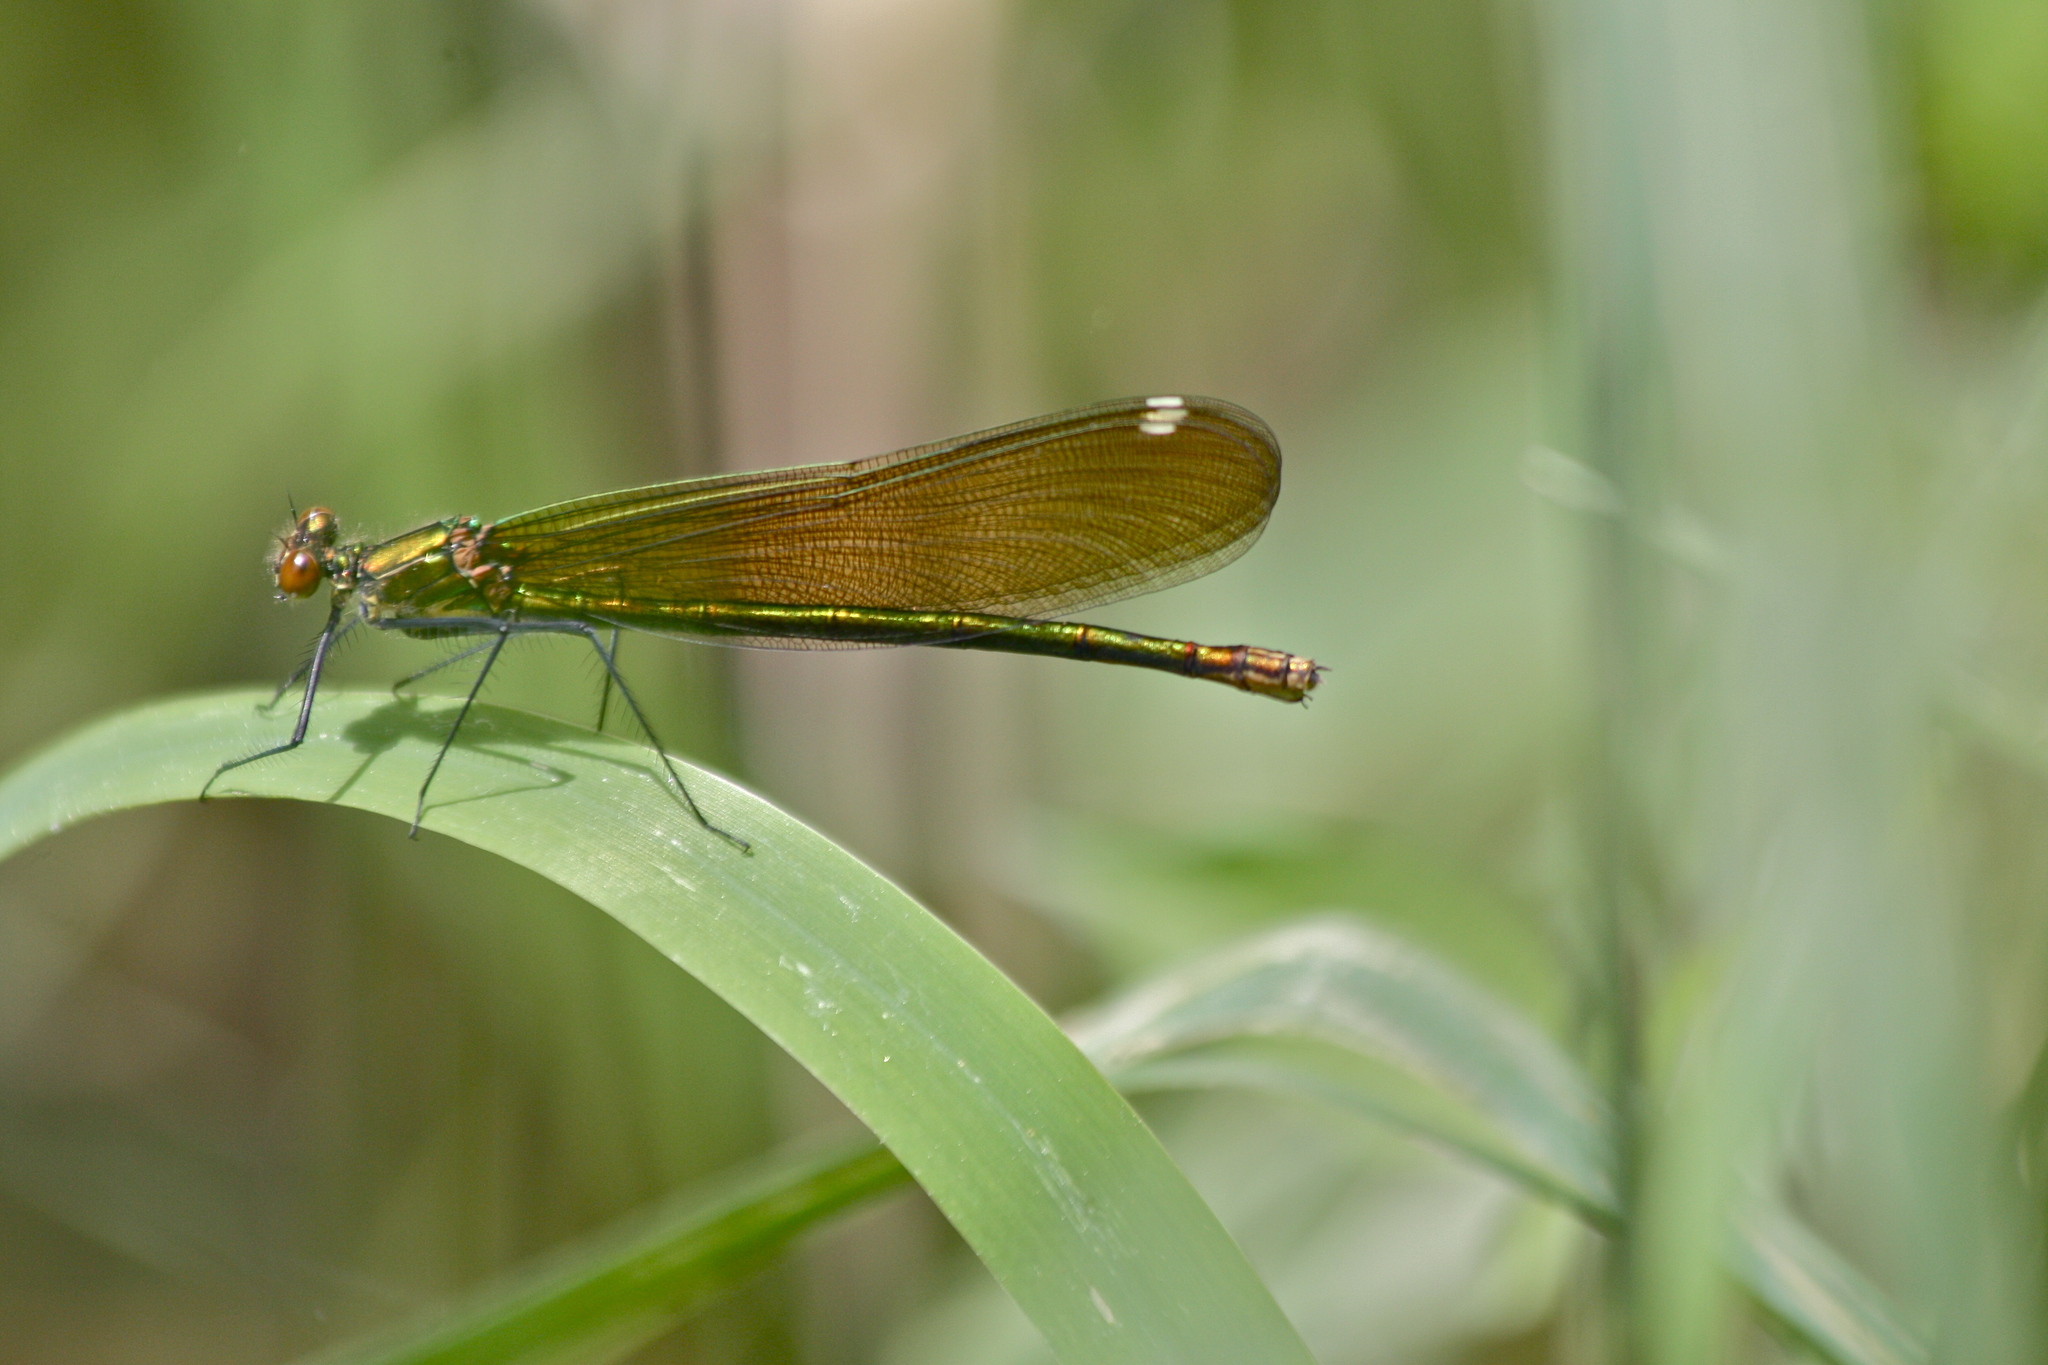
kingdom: Animalia
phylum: Arthropoda
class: Insecta
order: Odonata
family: Calopterygidae
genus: Calopteryx
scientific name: Calopteryx aequabilis
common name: River jewelwing
